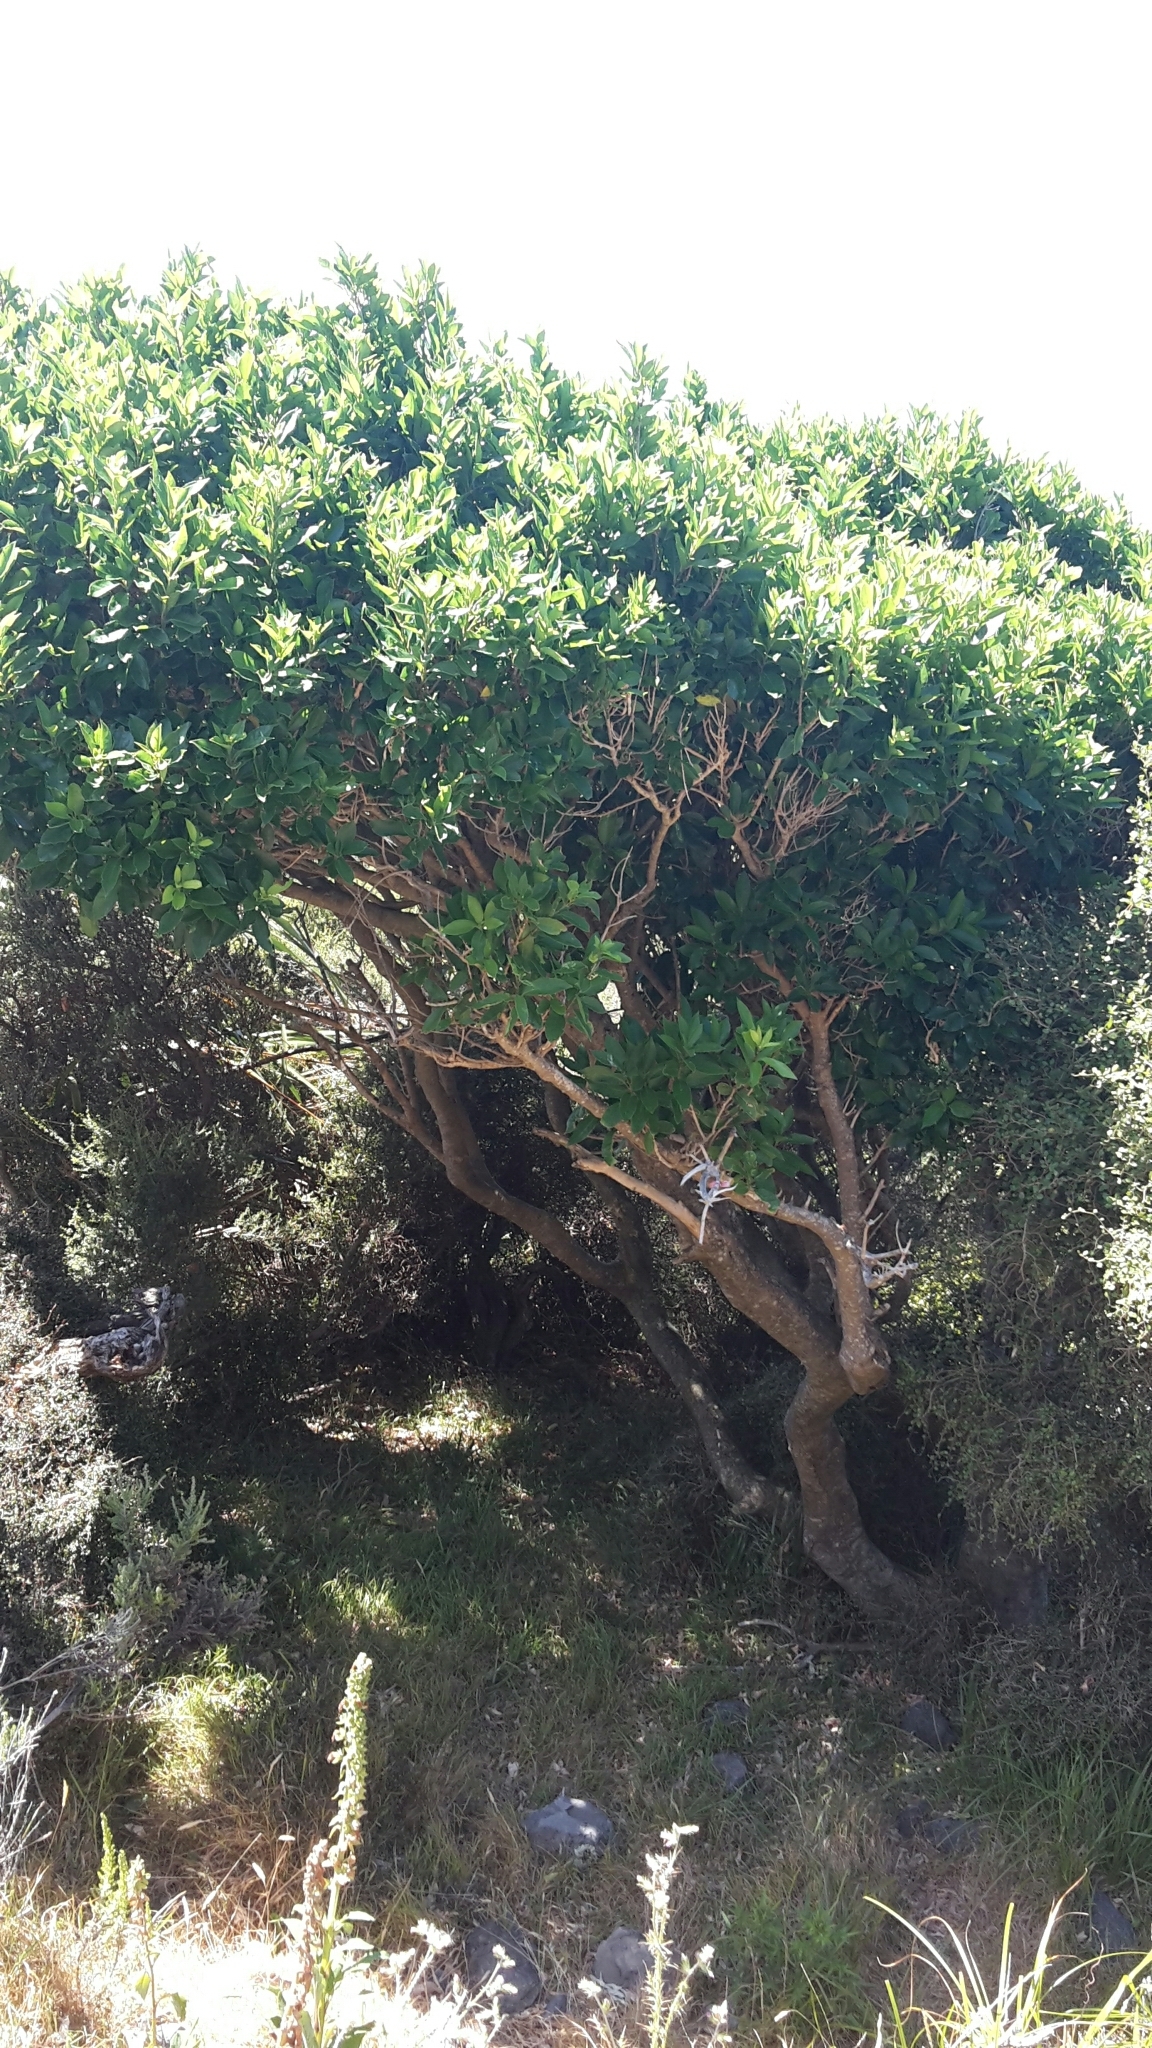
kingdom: Plantae
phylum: Tracheophyta
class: Magnoliopsida
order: Malpighiales
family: Violaceae
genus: Melicytus
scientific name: Melicytus ramiflorus
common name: Mahoe
